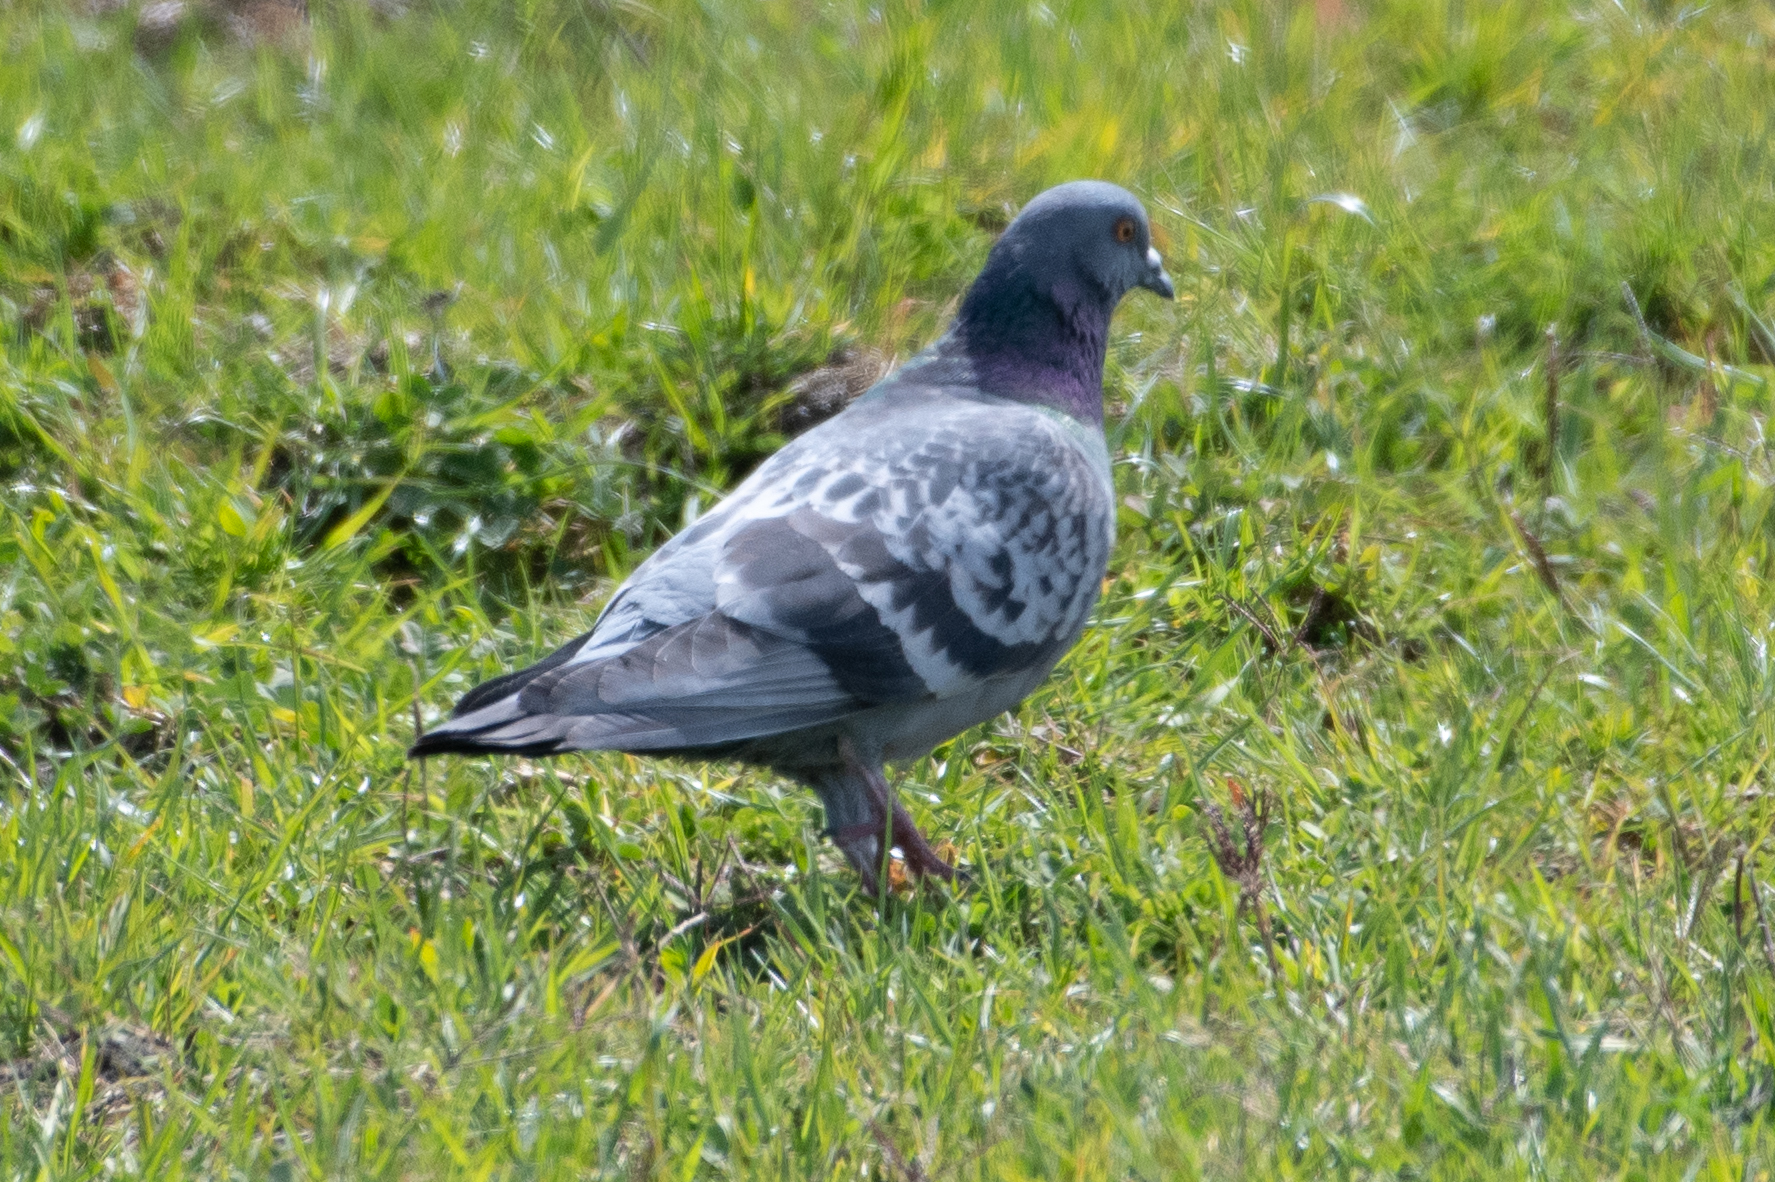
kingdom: Animalia
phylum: Chordata
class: Aves
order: Columbiformes
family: Columbidae
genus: Columba
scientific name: Columba livia
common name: Rock pigeon
